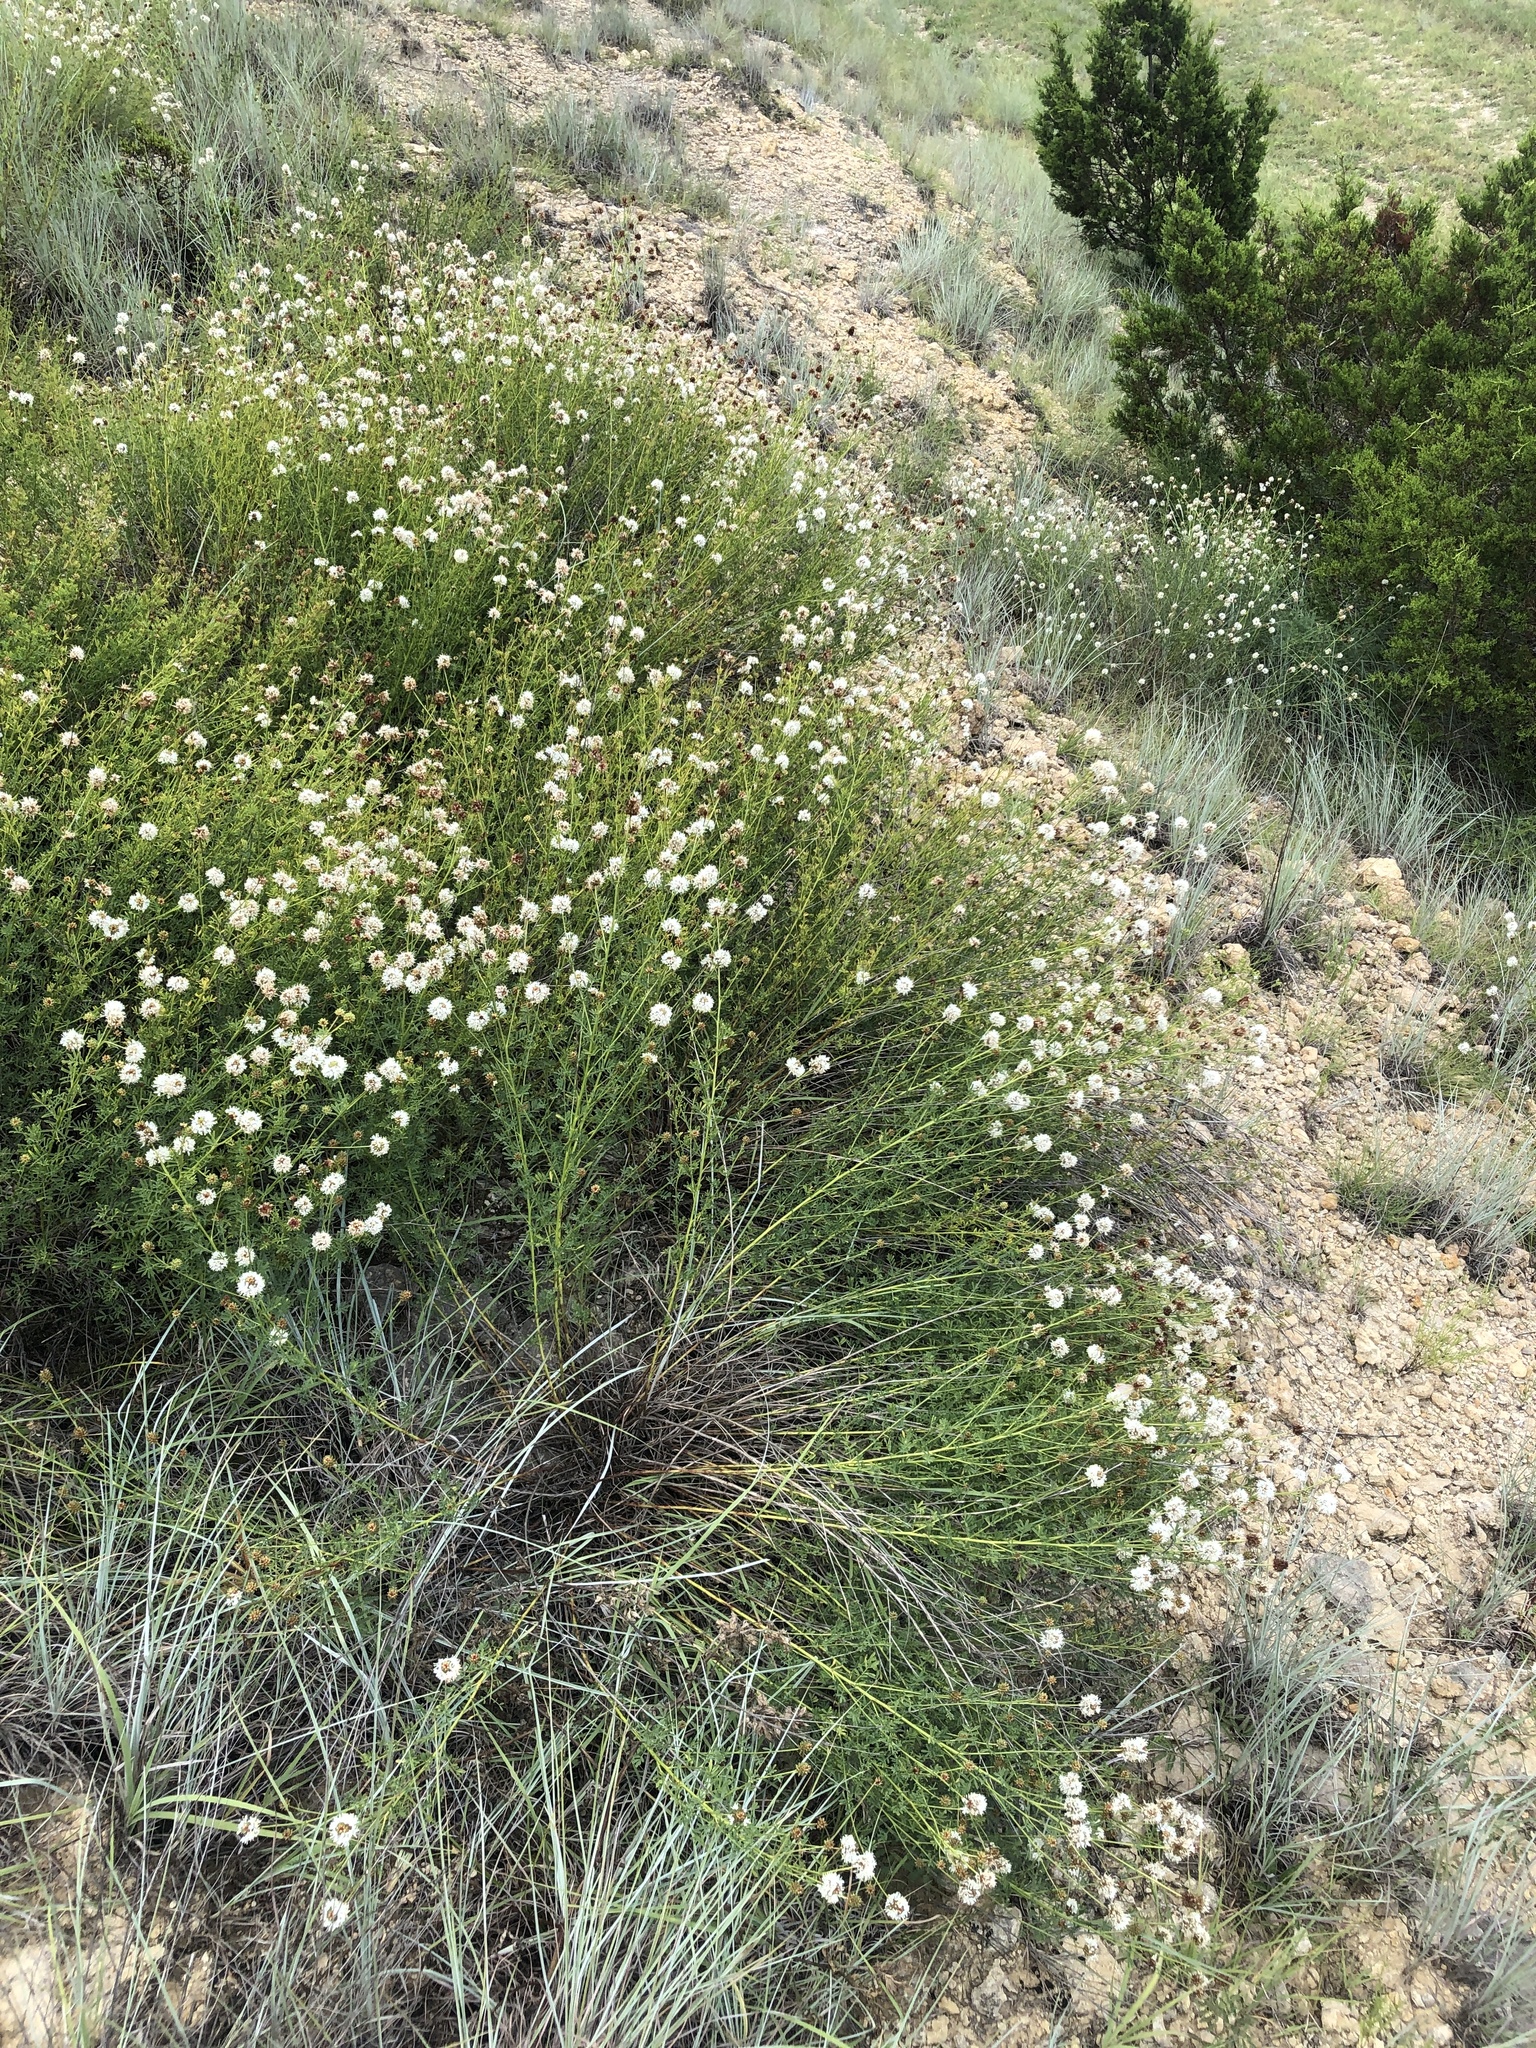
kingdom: Plantae
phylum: Tracheophyta
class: Magnoliopsida
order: Fabales
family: Fabaceae
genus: Dalea
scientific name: Dalea multiflora
